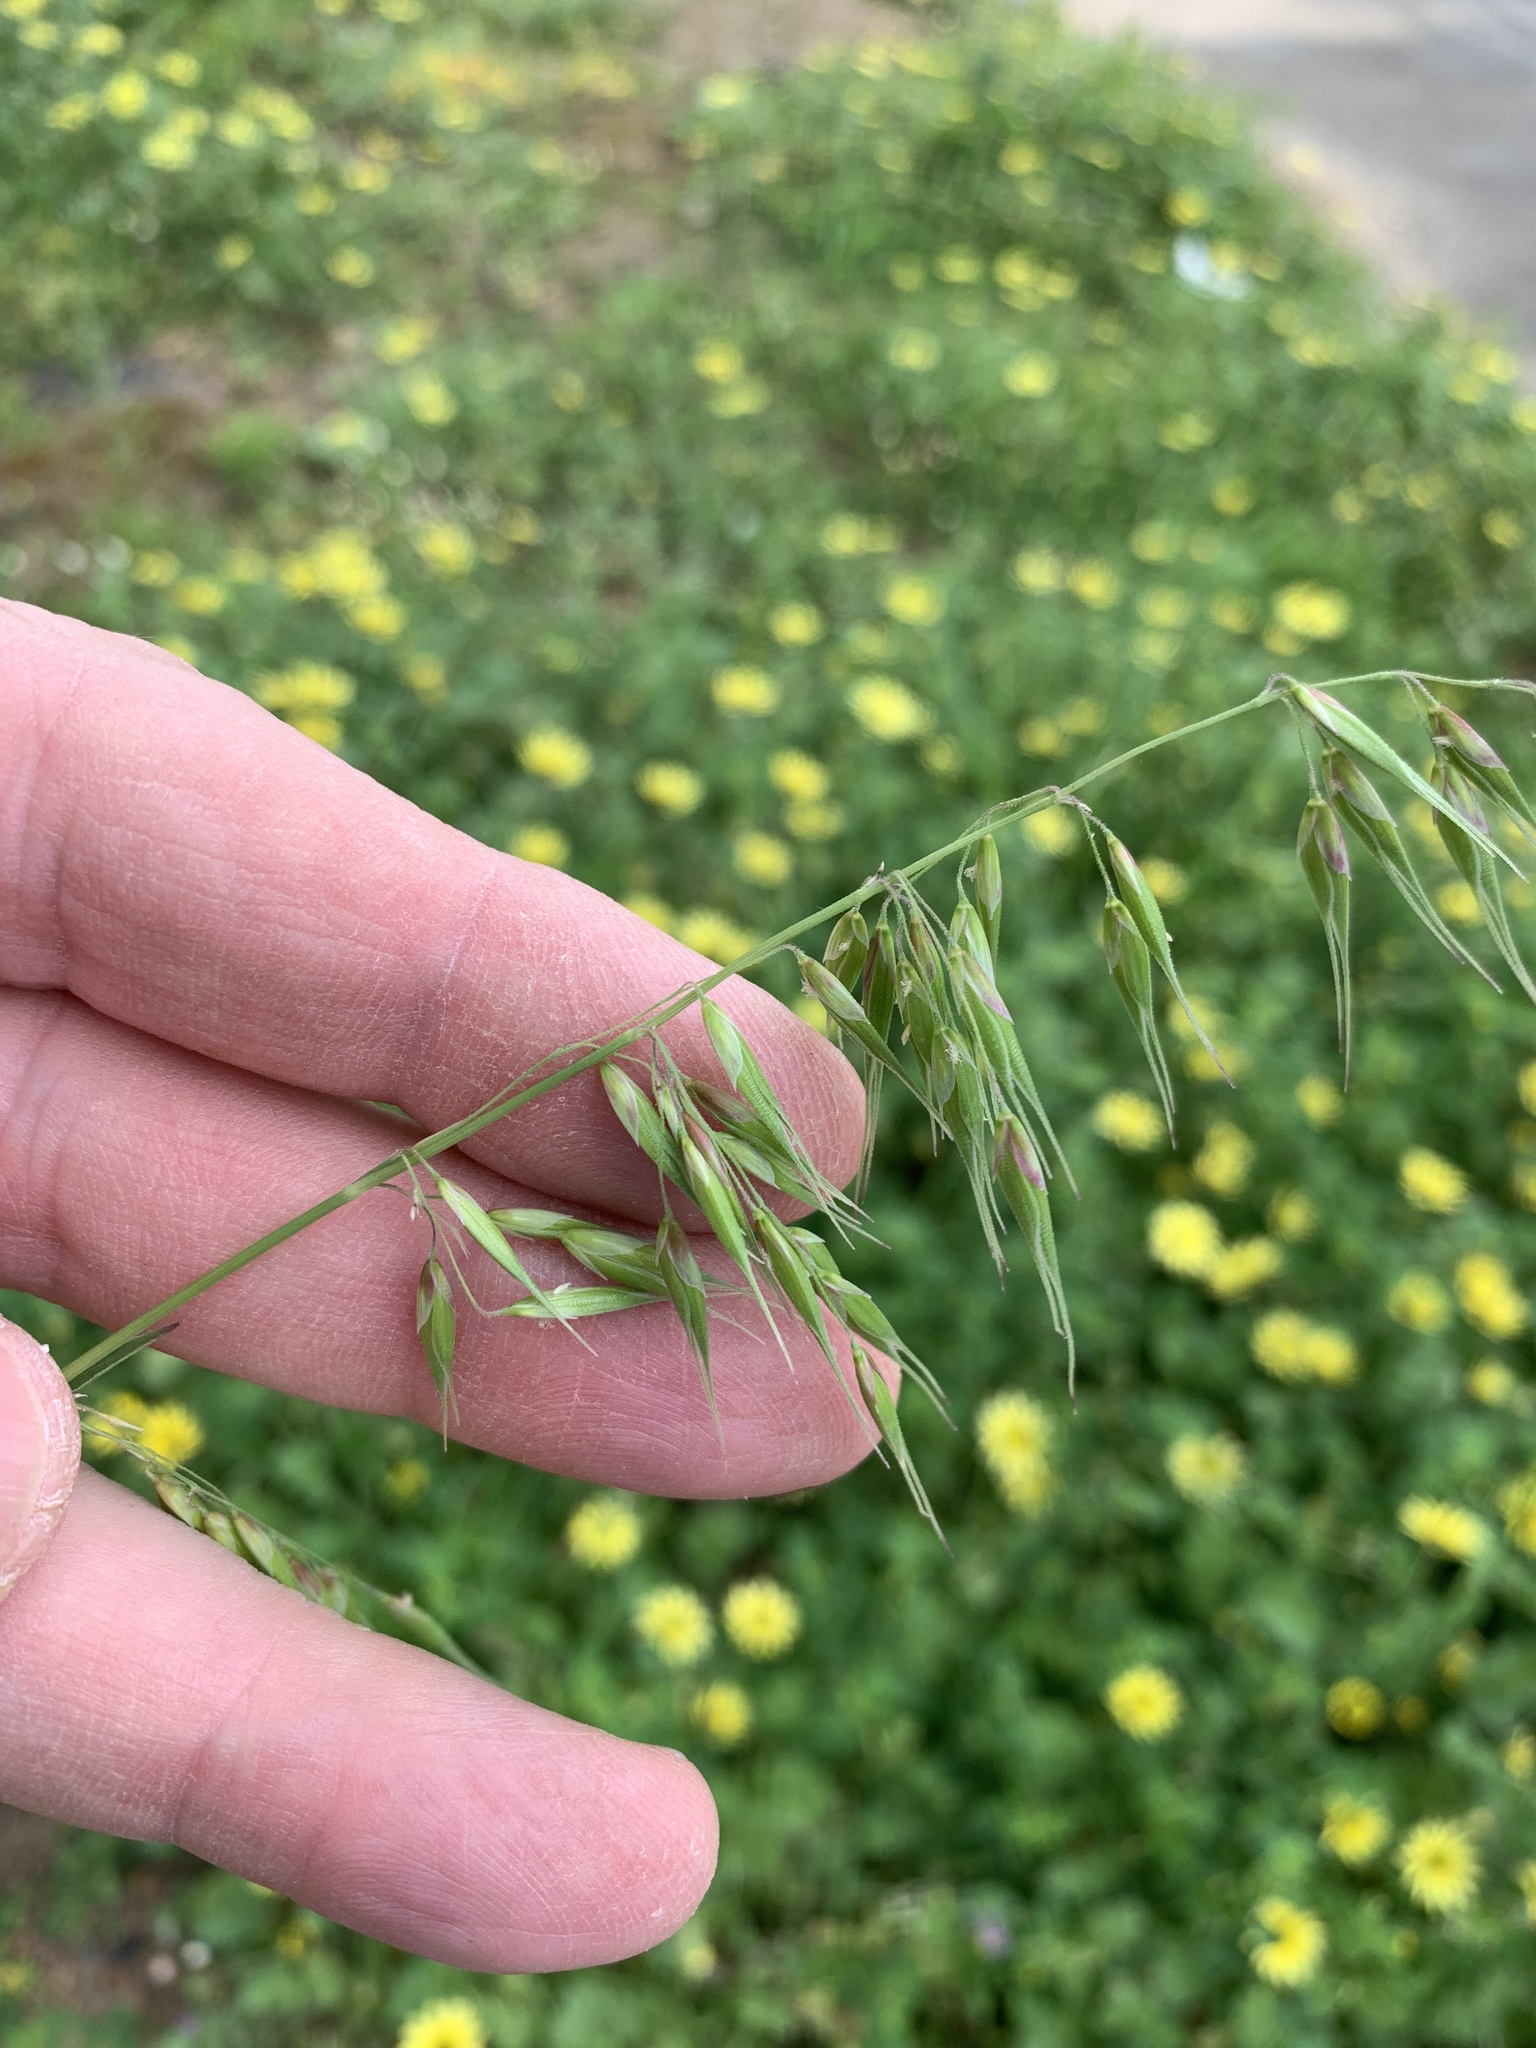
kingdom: Plantae
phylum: Tracheophyta
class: Liliopsida
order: Poales
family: Poaceae
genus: Ehrharta
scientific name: Ehrharta longiflora
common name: Longflowered veldtgrass
